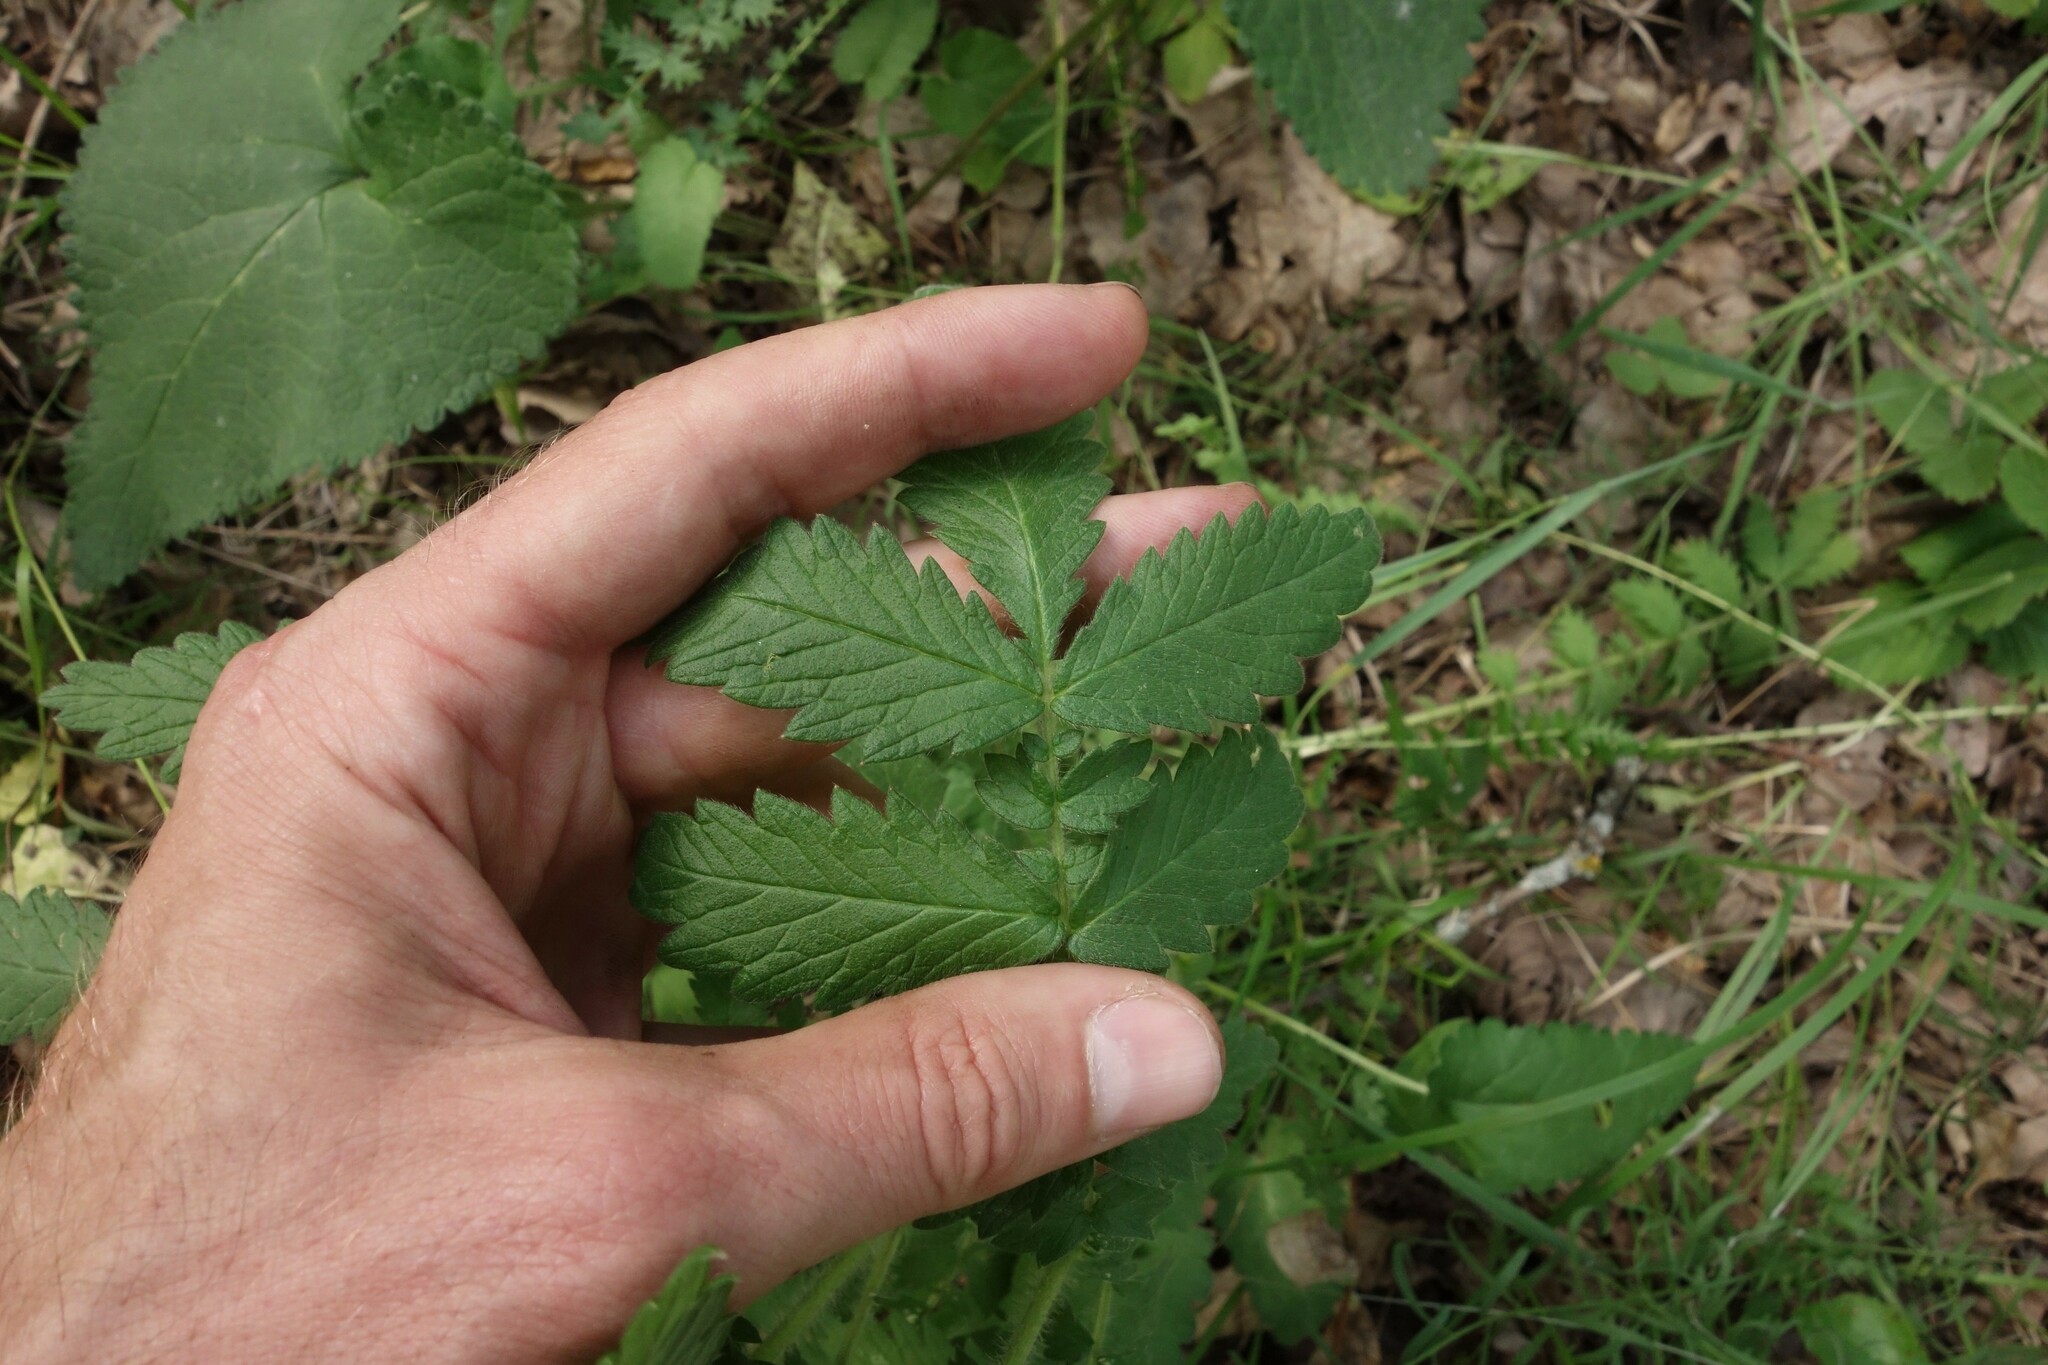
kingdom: Plantae
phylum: Tracheophyta
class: Magnoliopsida
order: Rosales
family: Rosaceae
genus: Agrimonia
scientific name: Agrimonia eupatoria
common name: Agrimony
